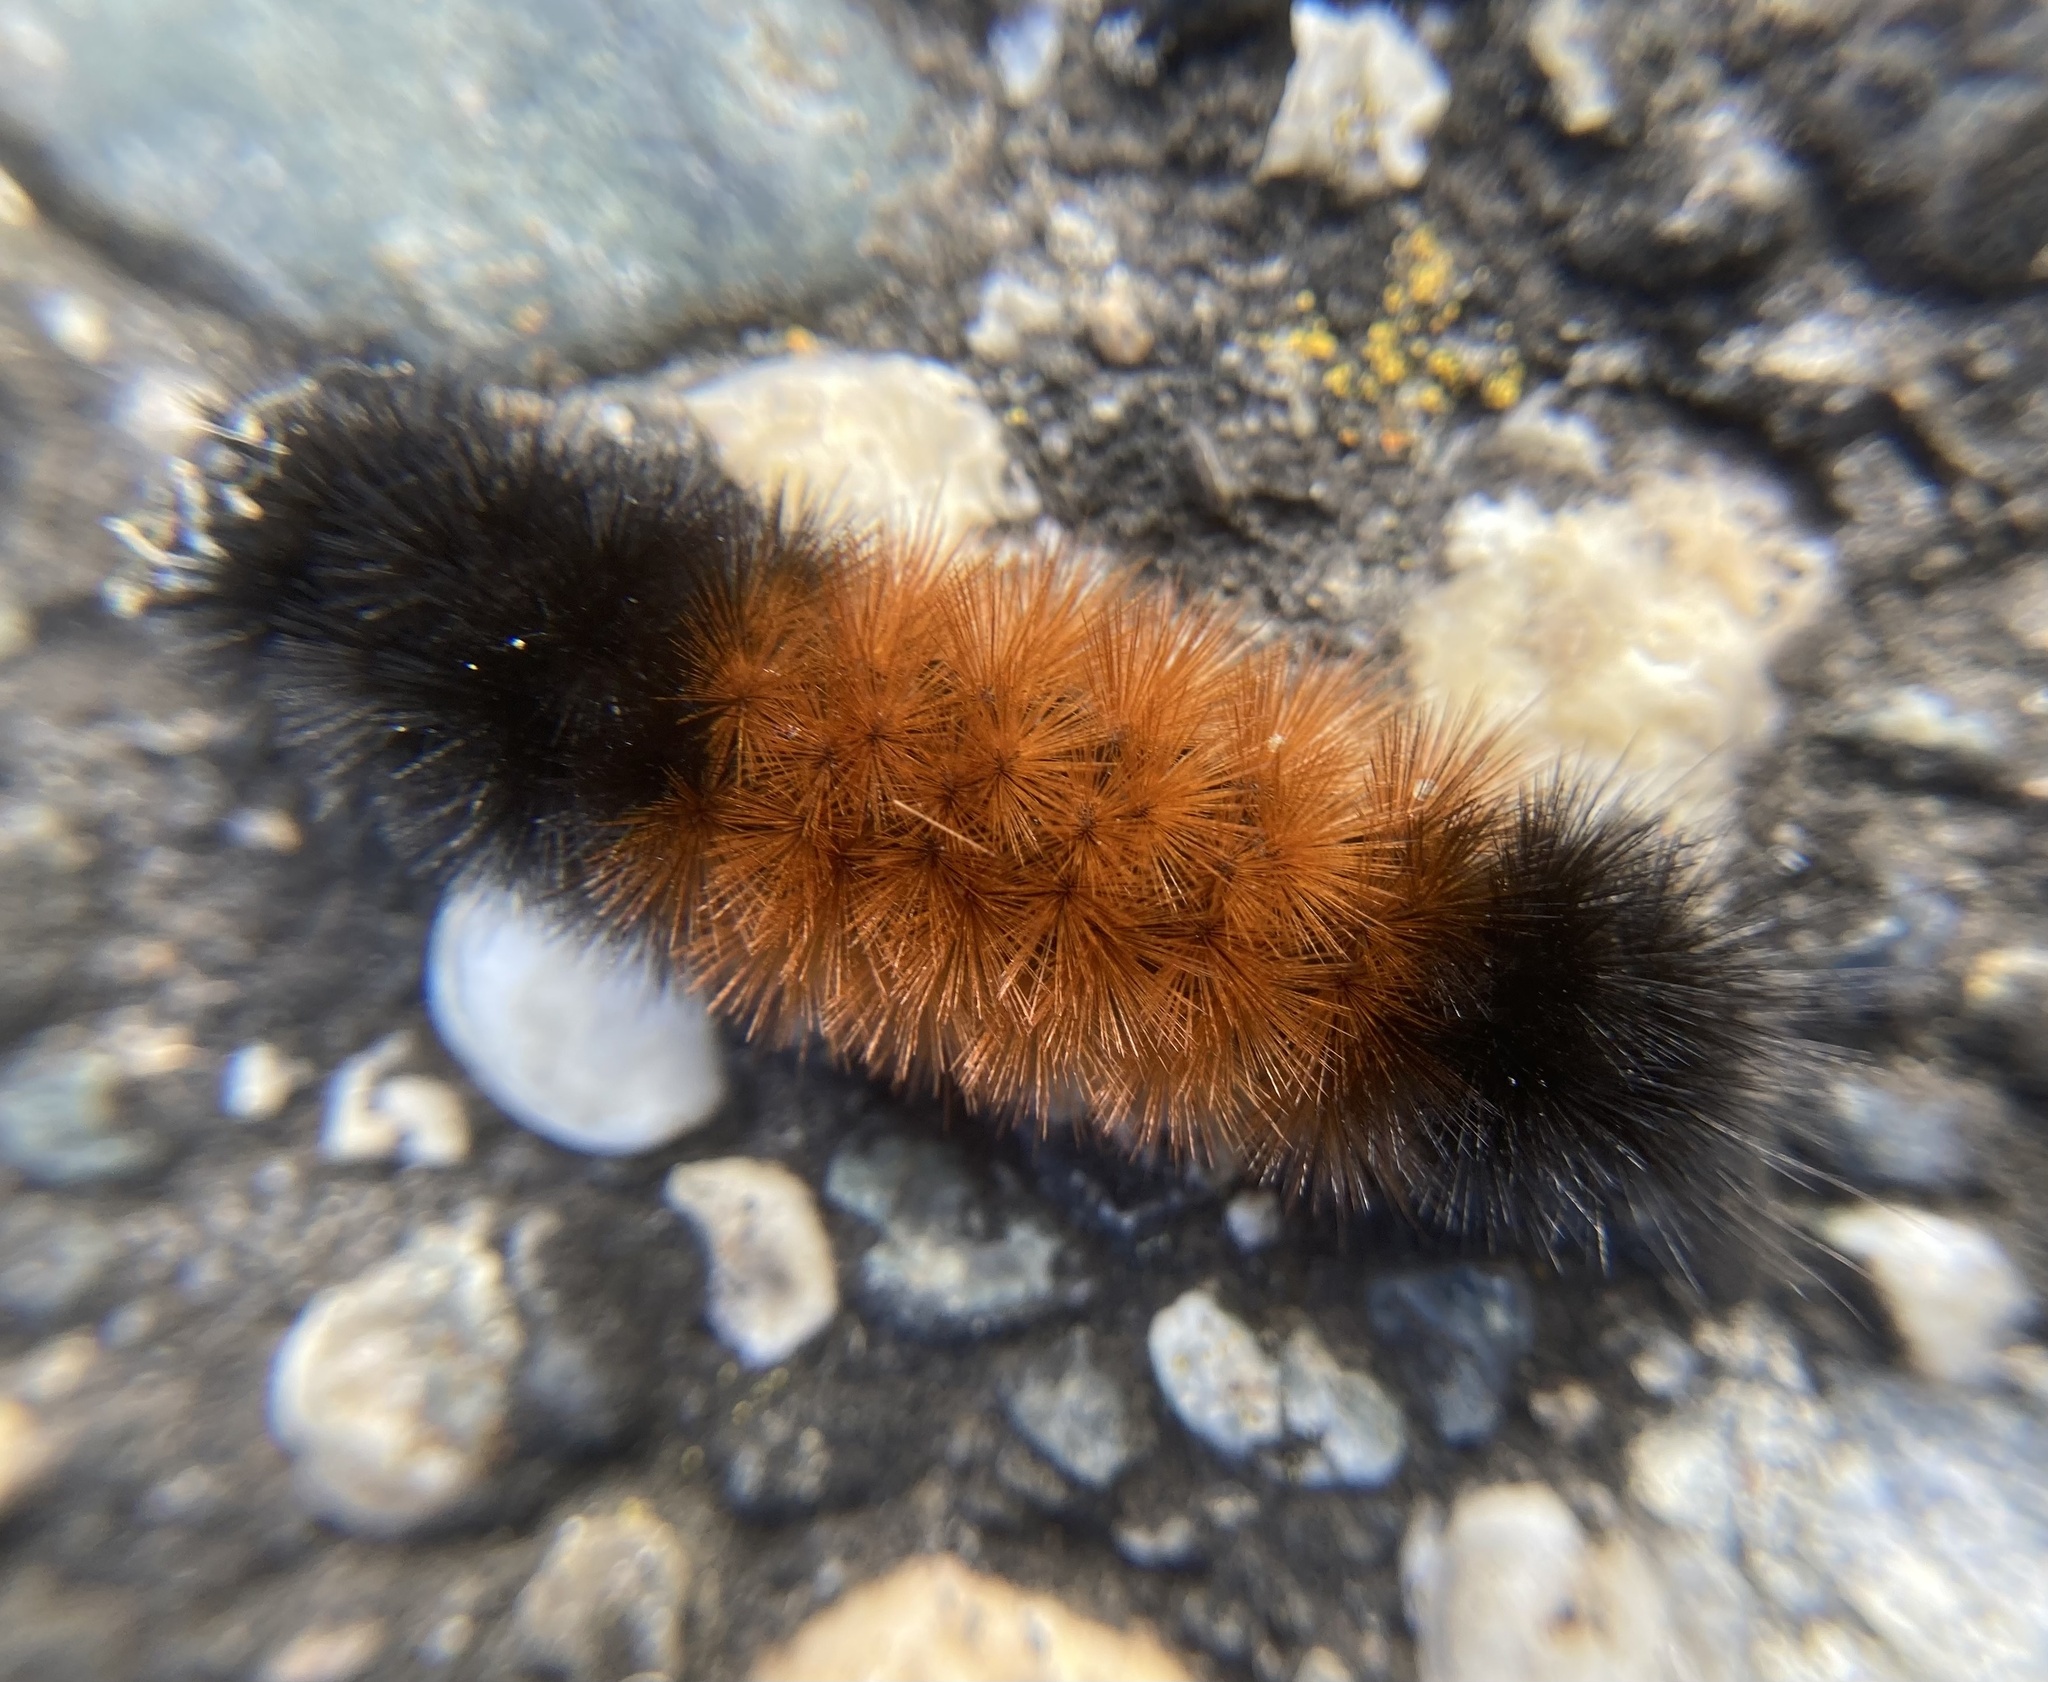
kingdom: Animalia
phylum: Arthropoda
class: Insecta
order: Lepidoptera
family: Erebidae
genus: Pyrrharctia
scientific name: Pyrrharctia isabella
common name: Isabella tiger moth
